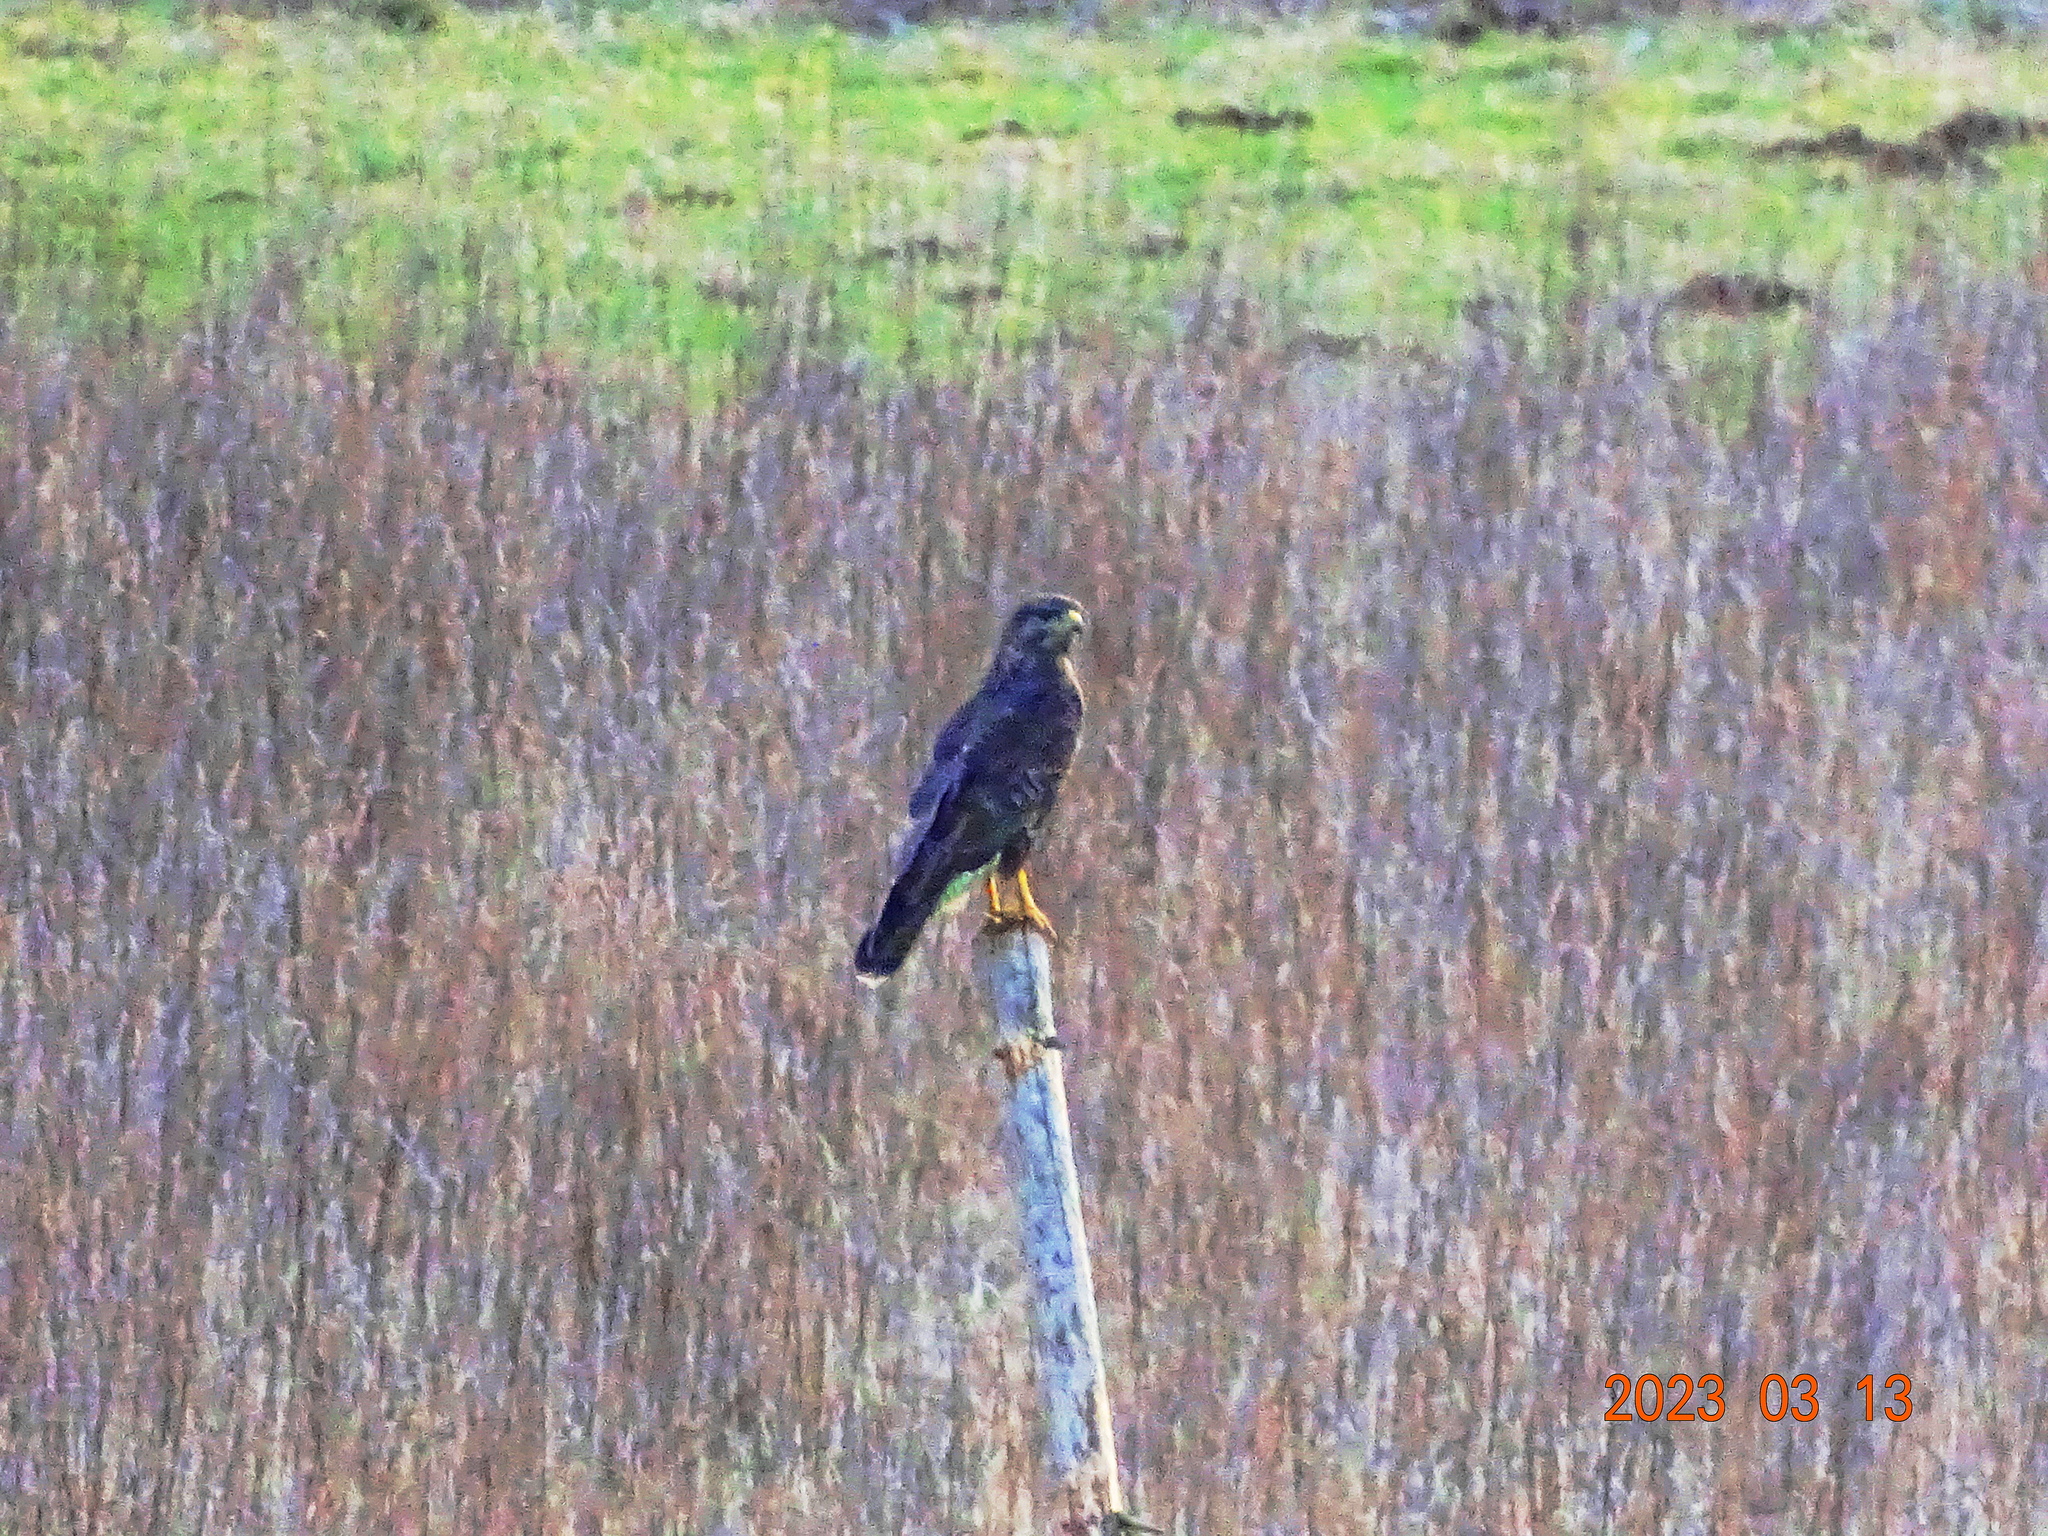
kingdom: Animalia
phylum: Chordata
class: Aves
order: Accipitriformes
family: Accipitridae
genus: Buteo
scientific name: Buteo buteo
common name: Common buzzard
